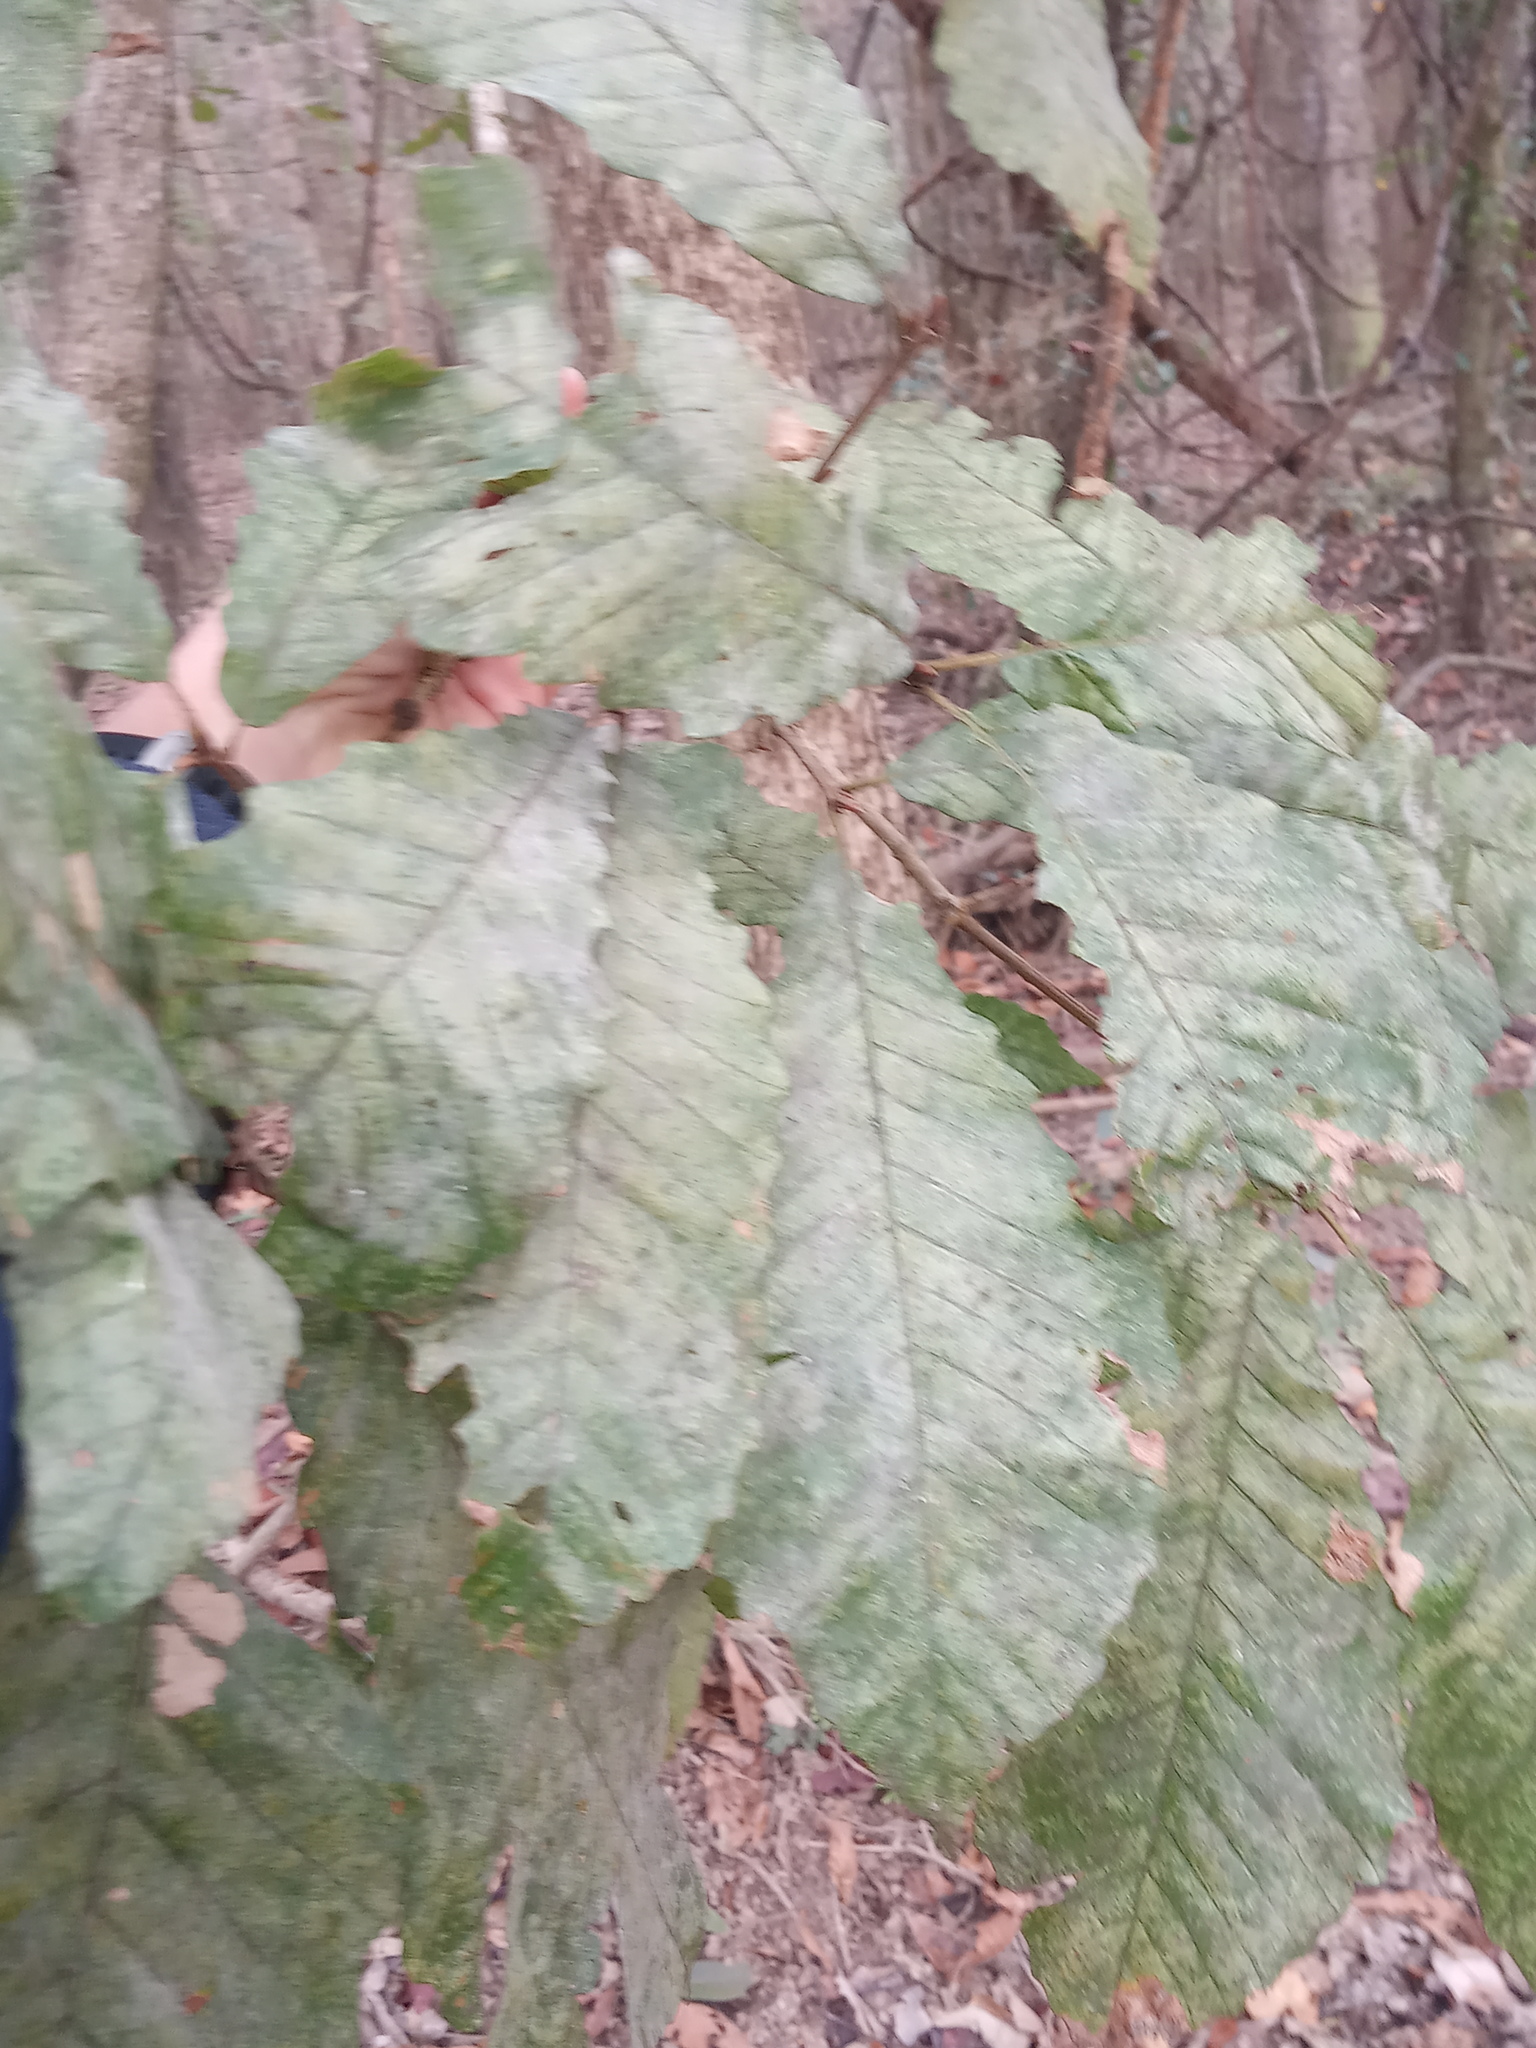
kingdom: Plantae
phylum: Tracheophyta
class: Magnoliopsida
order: Fagales
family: Fagaceae
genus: Quercus
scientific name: Quercus michauxii
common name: Swamp chestnut oak
